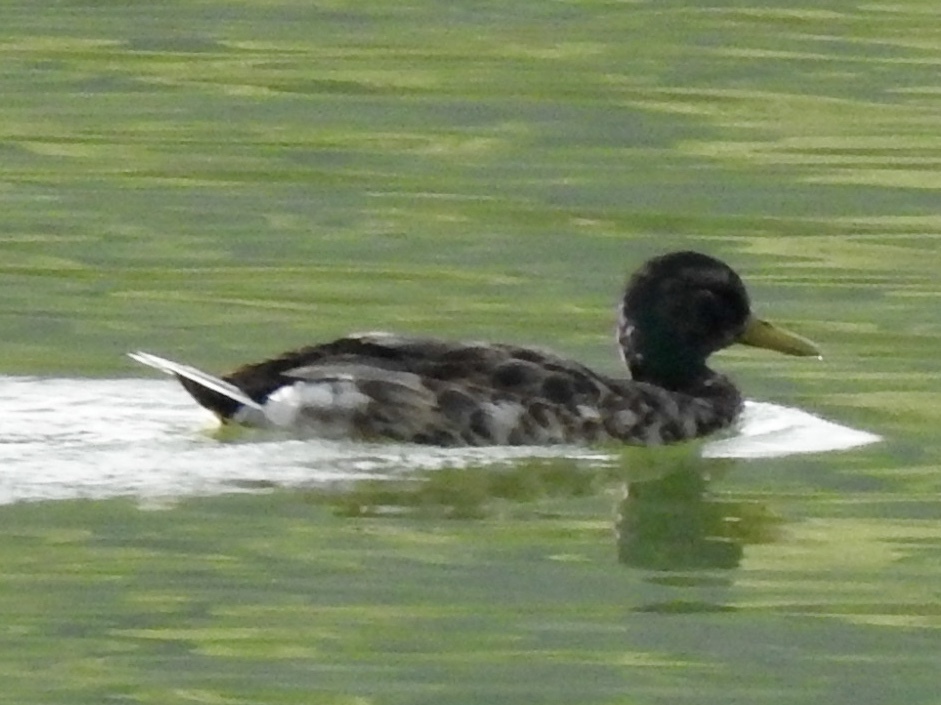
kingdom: Animalia
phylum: Chordata
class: Aves
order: Anseriformes
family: Anatidae
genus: Anas
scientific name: Anas platyrhynchos
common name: Mallard
